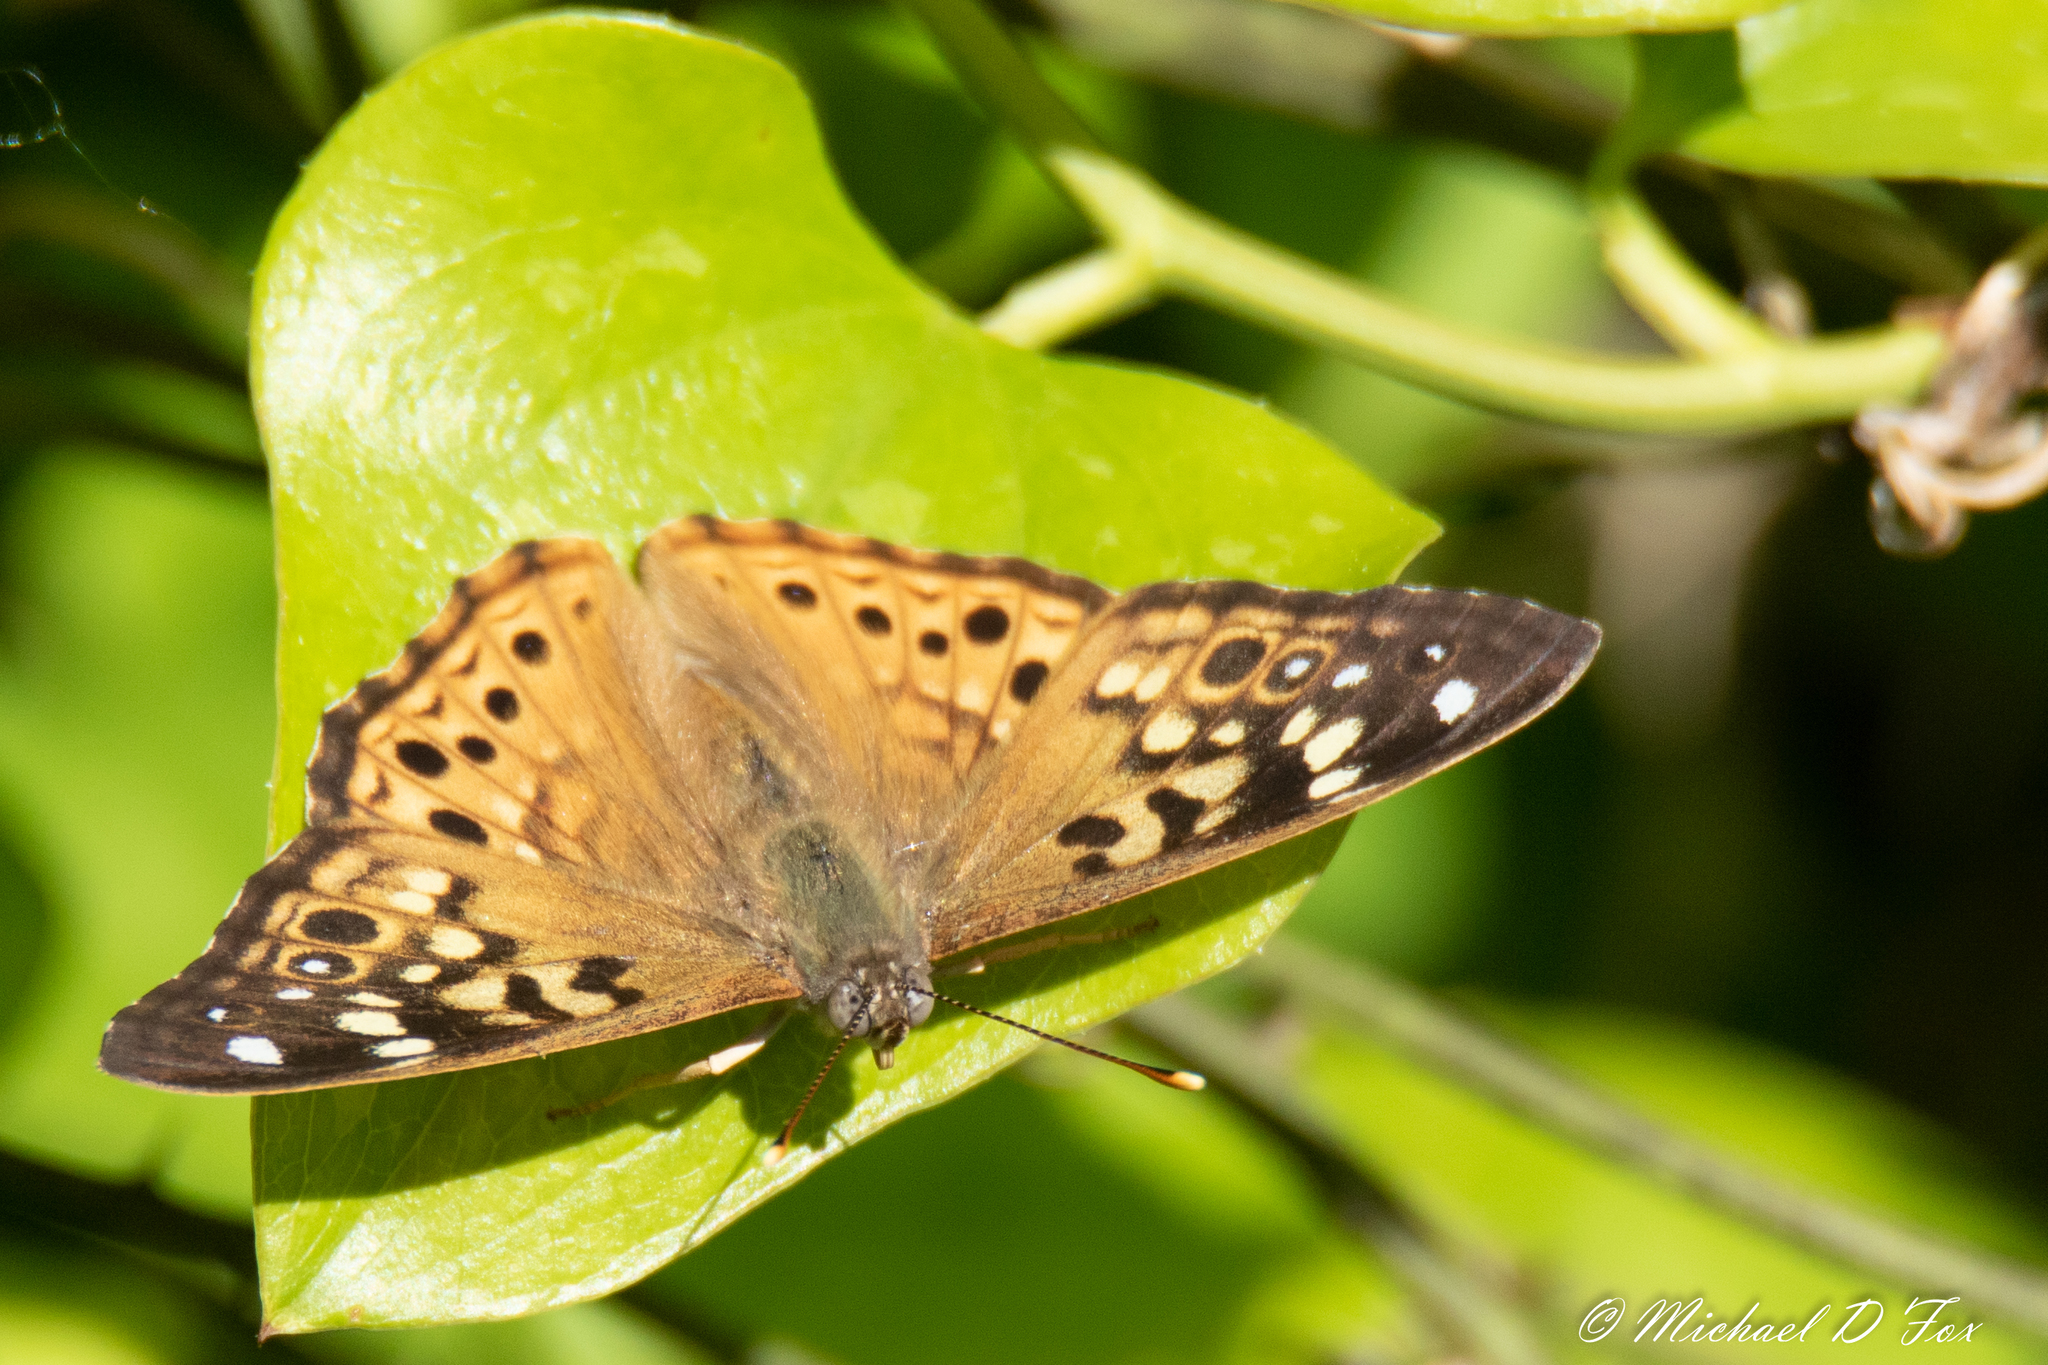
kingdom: Animalia
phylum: Arthropoda
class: Insecta
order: Lepidoptera
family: Nymphalidae
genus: Asterocampa
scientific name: Asterocampa celtis
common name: Hackberry emperor
